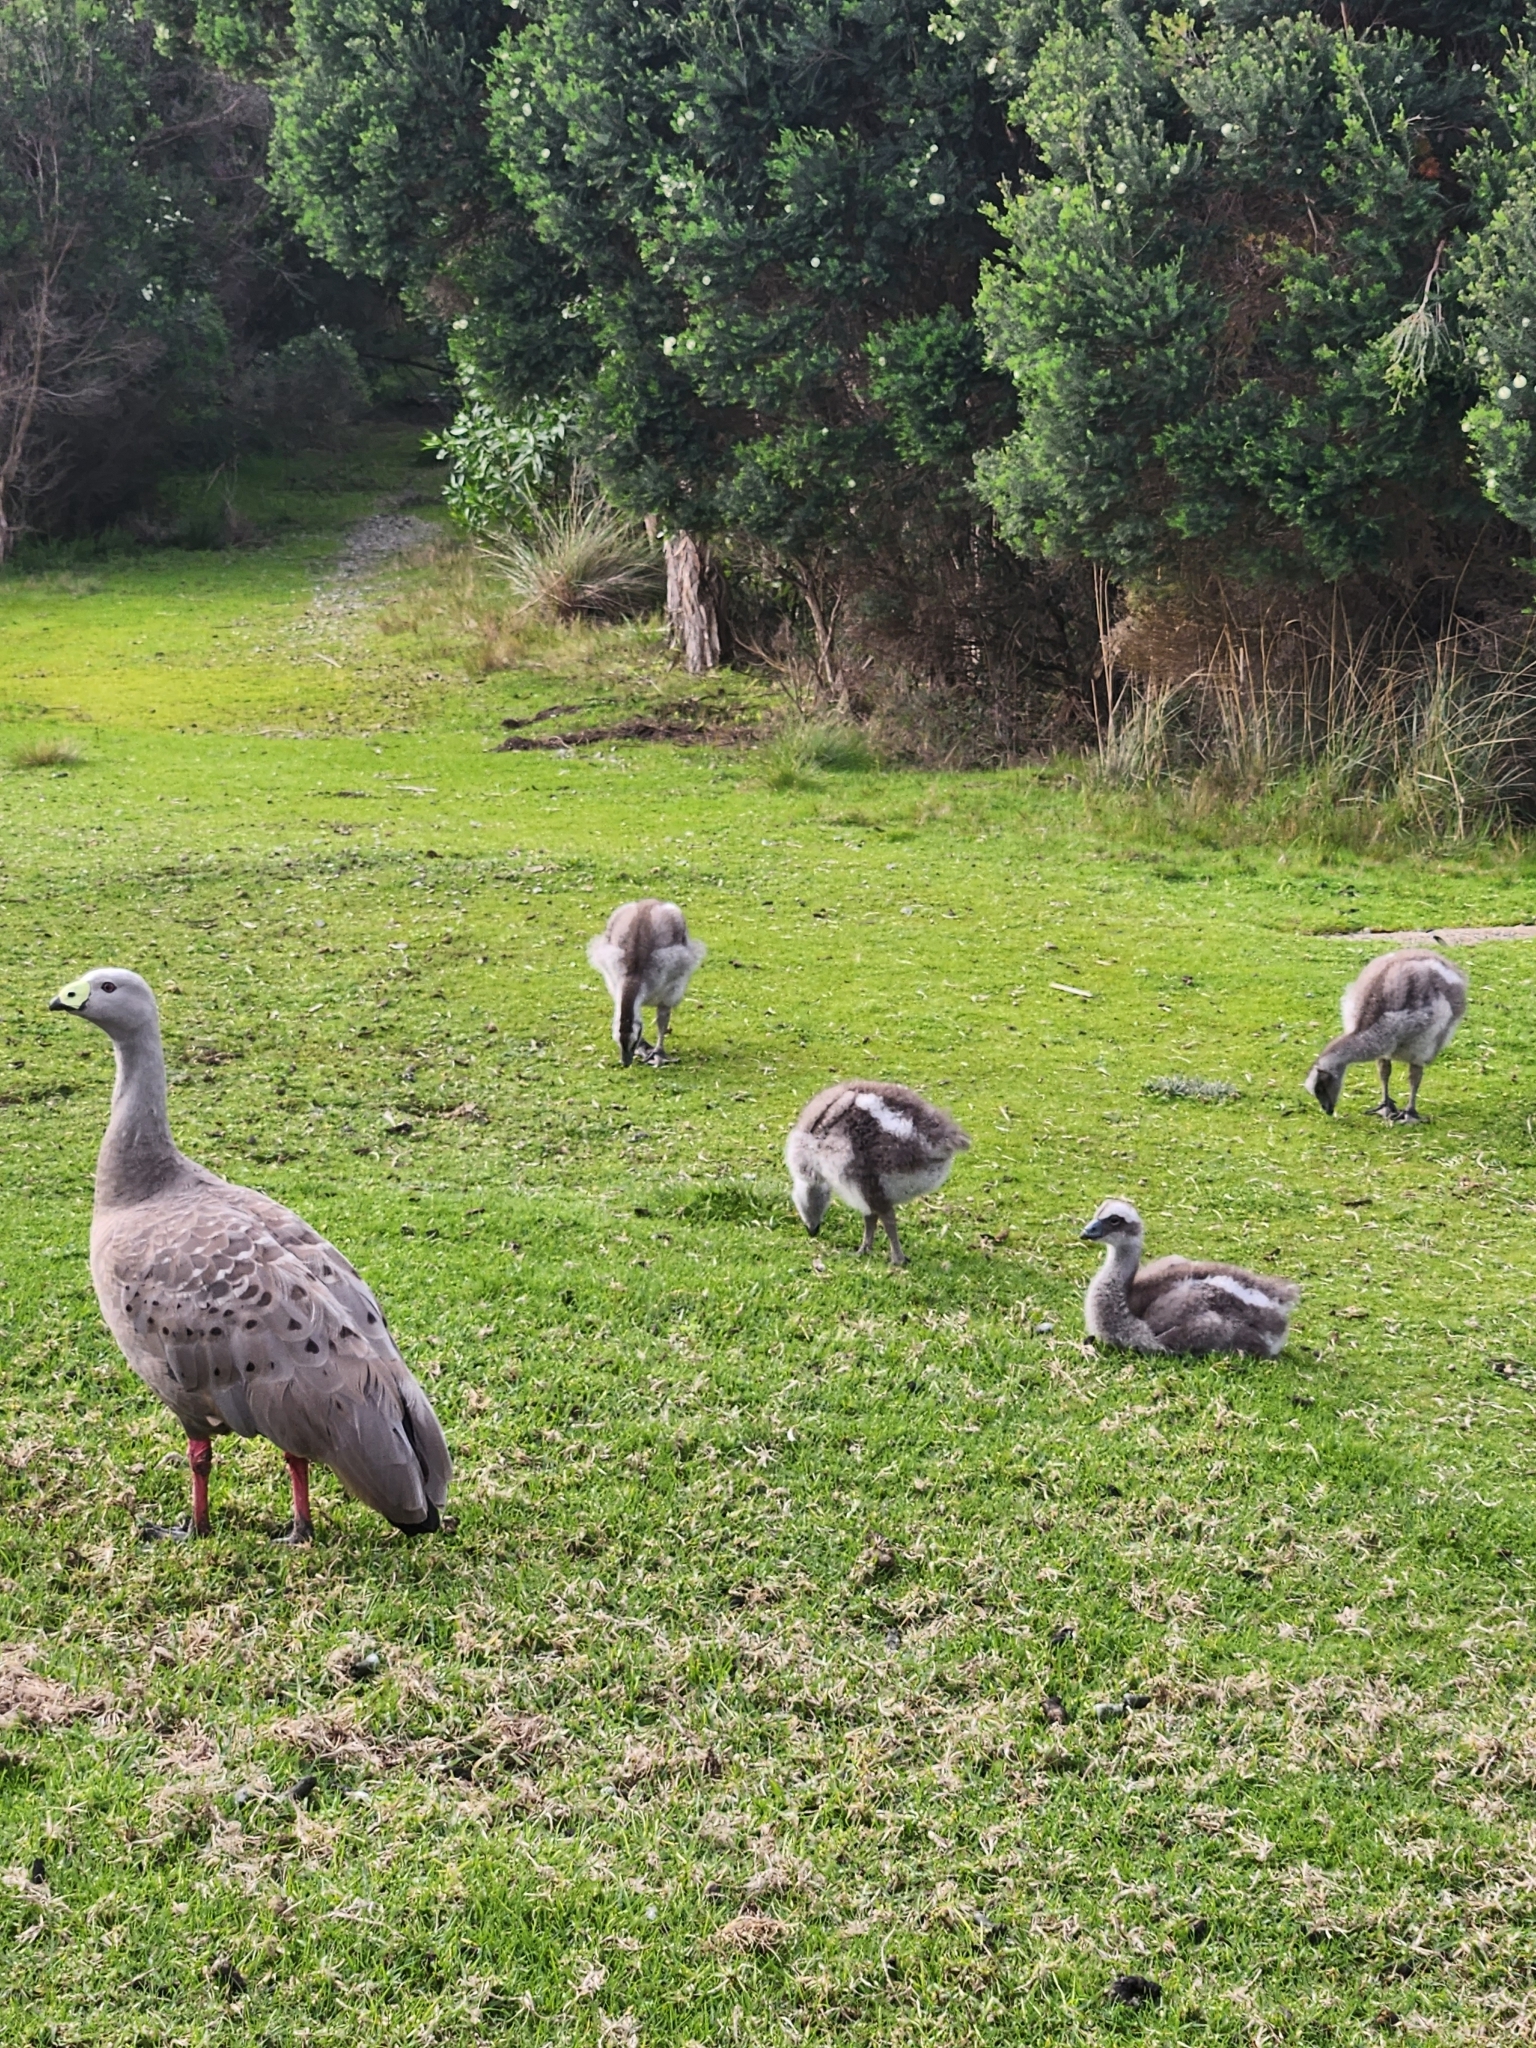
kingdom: Animalia
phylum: Chordata
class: Aves
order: Anseriformes
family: Anatidae
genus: Cereopsis
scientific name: Cereopsis novaehollandiae
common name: Cape barren goose
